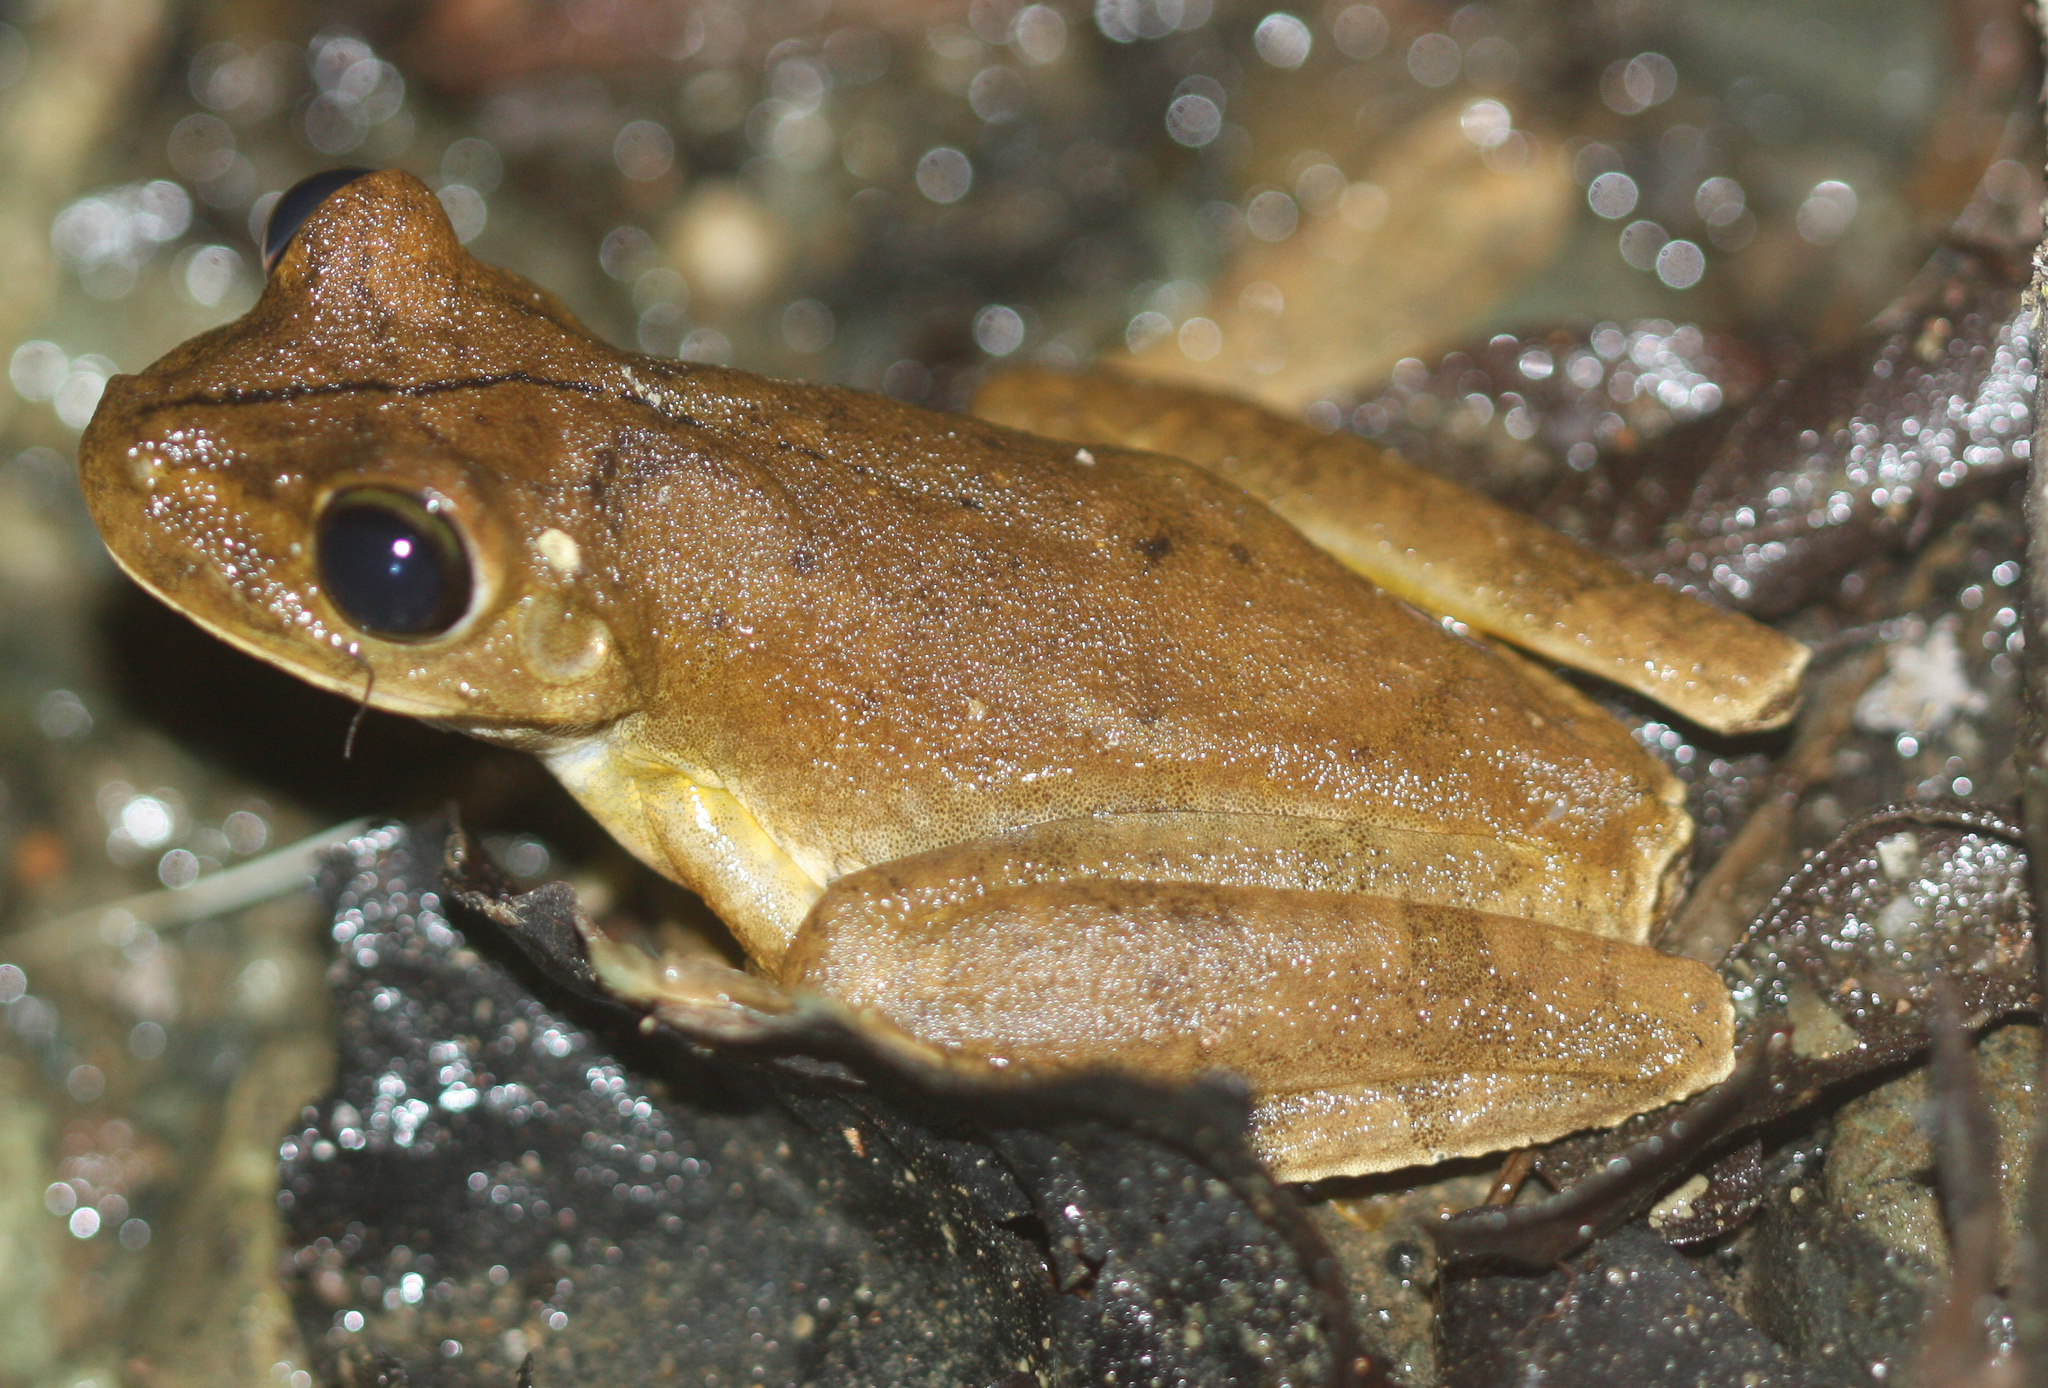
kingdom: Animalia
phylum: Chordata
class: Amphibia
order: Anura
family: Hylidae
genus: Boana
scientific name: Boana rosenbergi
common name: Rosenberg´s gladiator treefrog
